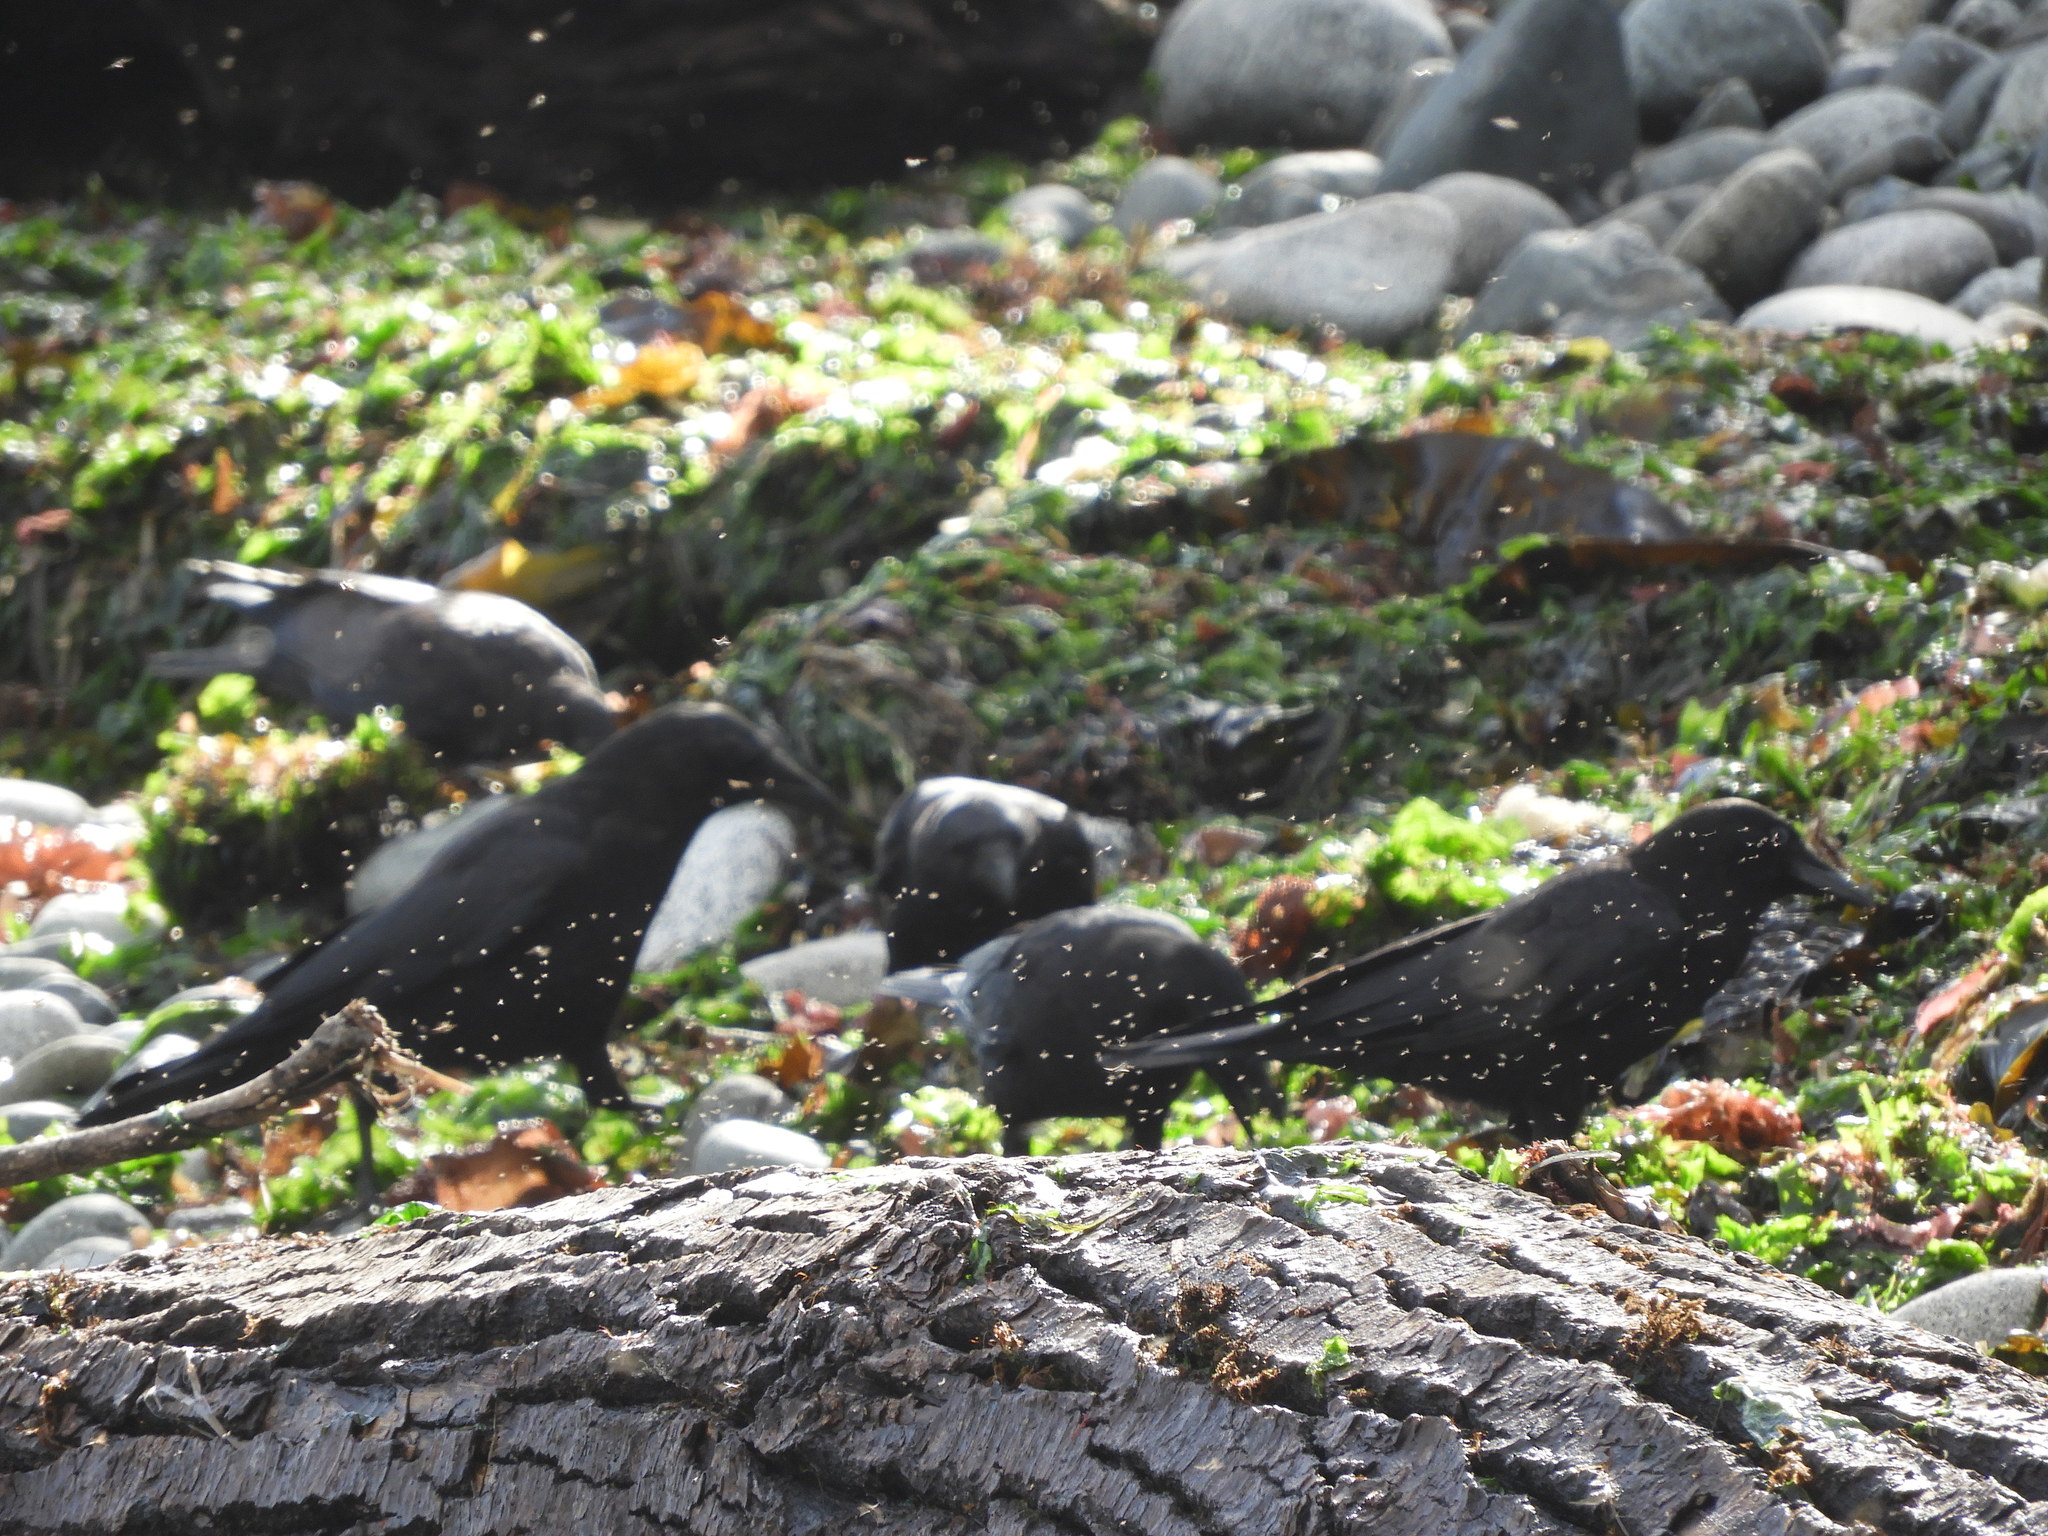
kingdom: Animalia
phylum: Chordata
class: Aves
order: Passeriformes
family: Corvidae
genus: Corvus
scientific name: Corvus brachyrhynchos
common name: American crow
